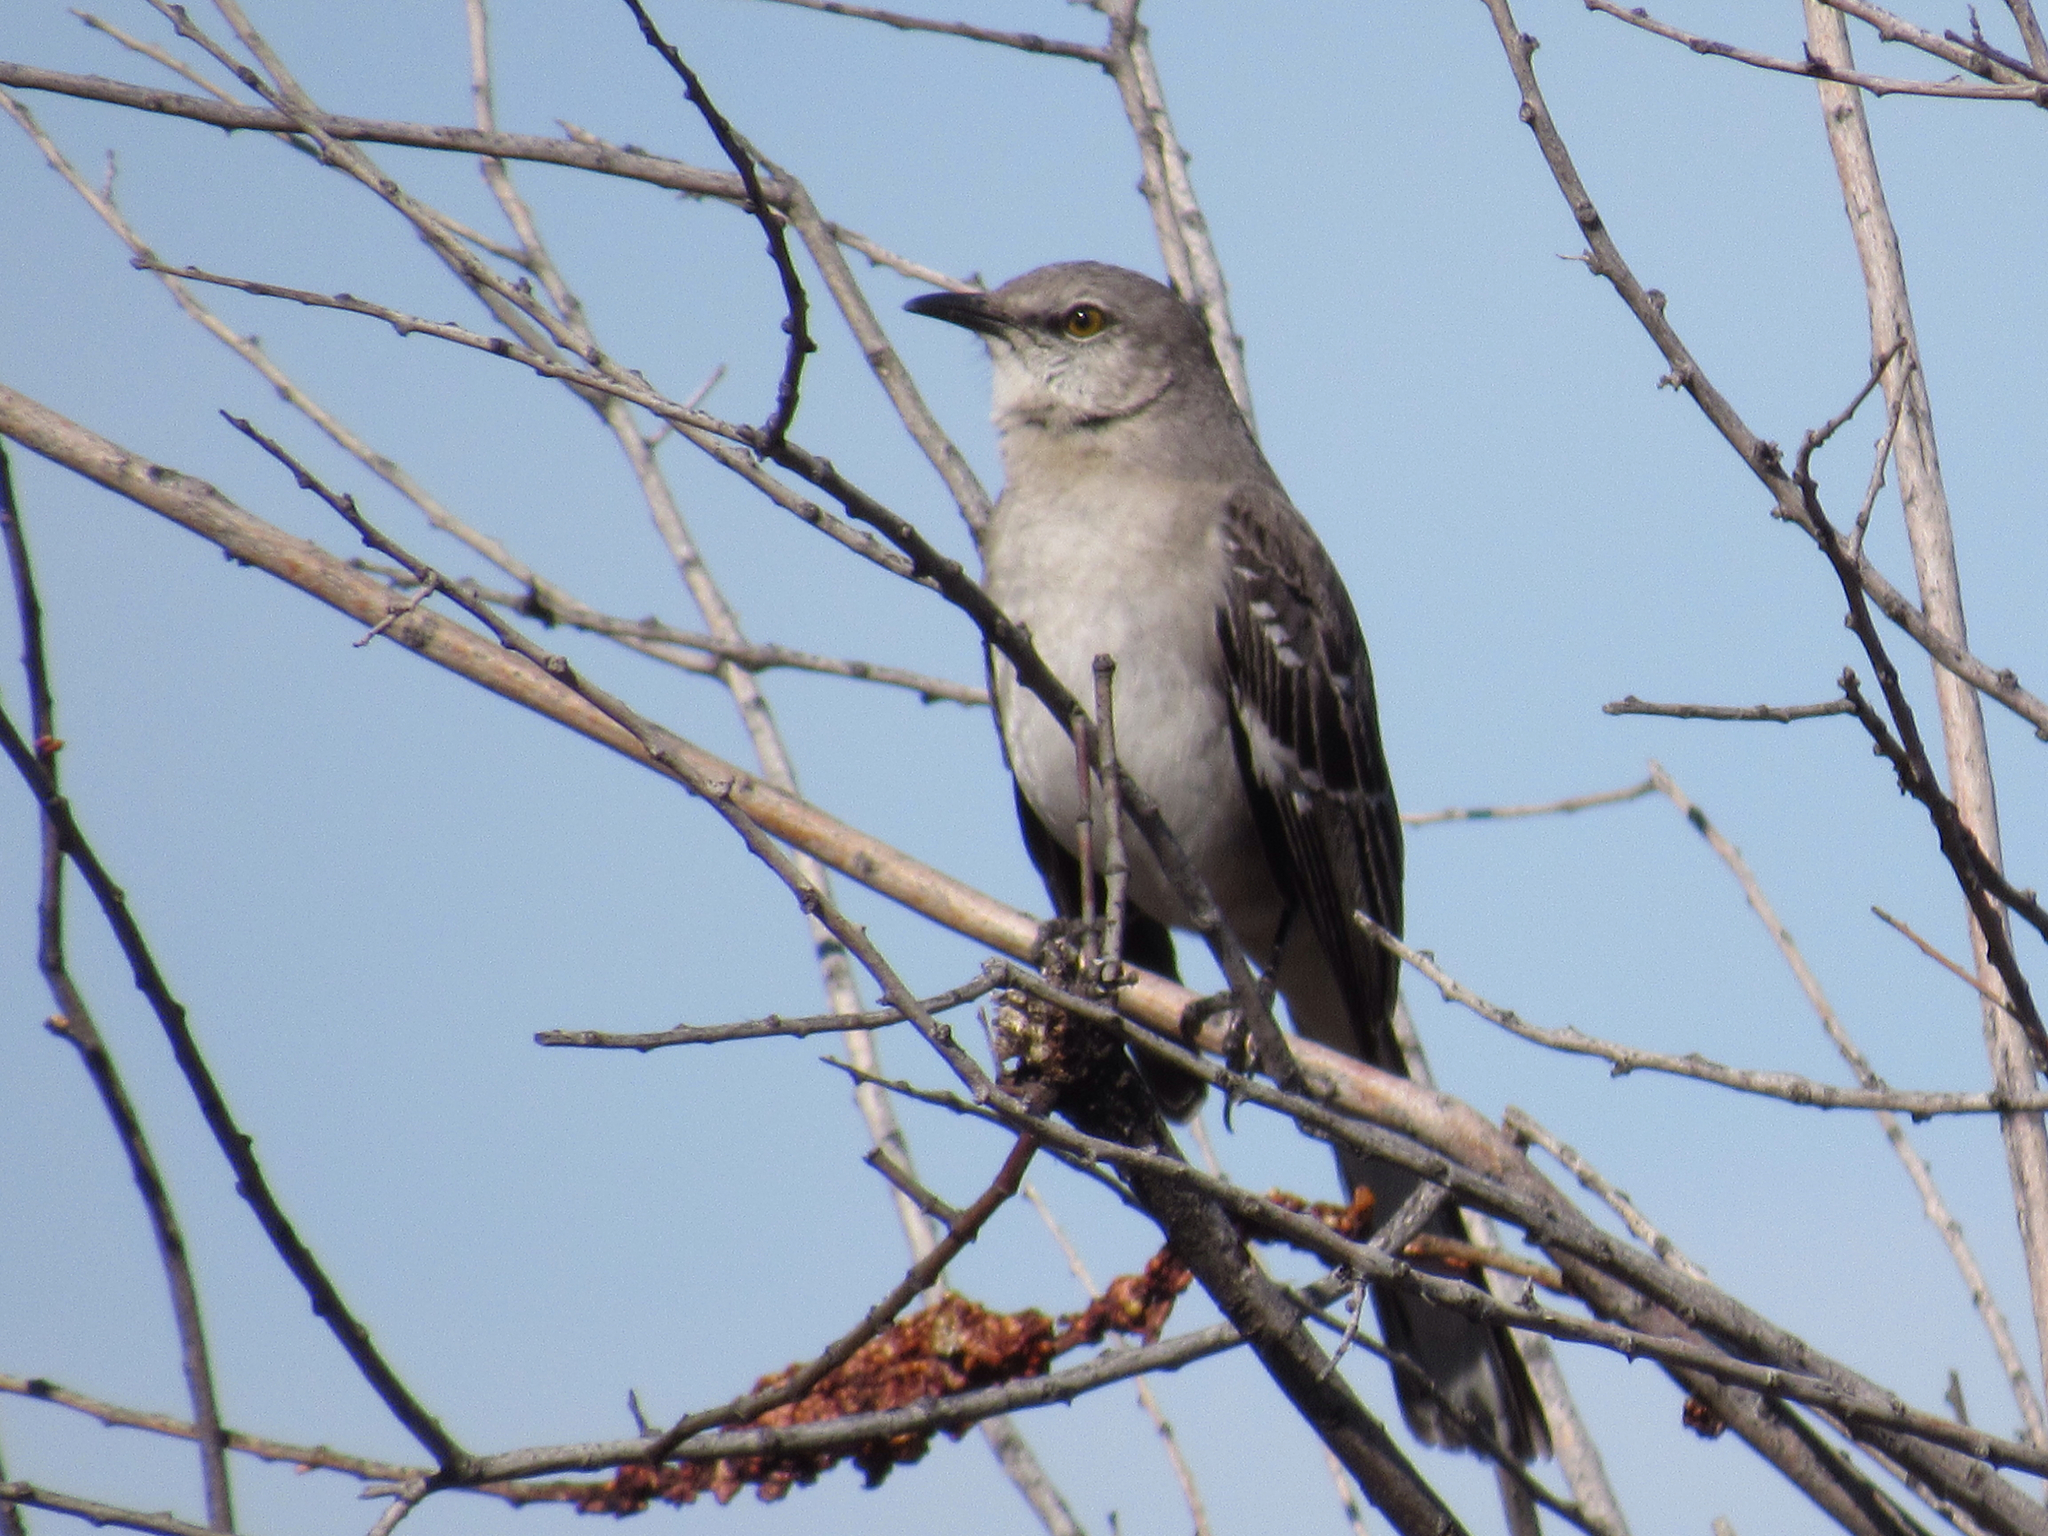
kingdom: Animalia
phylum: Chordata
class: Aves
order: Passeriformes
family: Mimidae
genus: Mimus
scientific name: Mimus polyglottos
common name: Northern mockingbird
